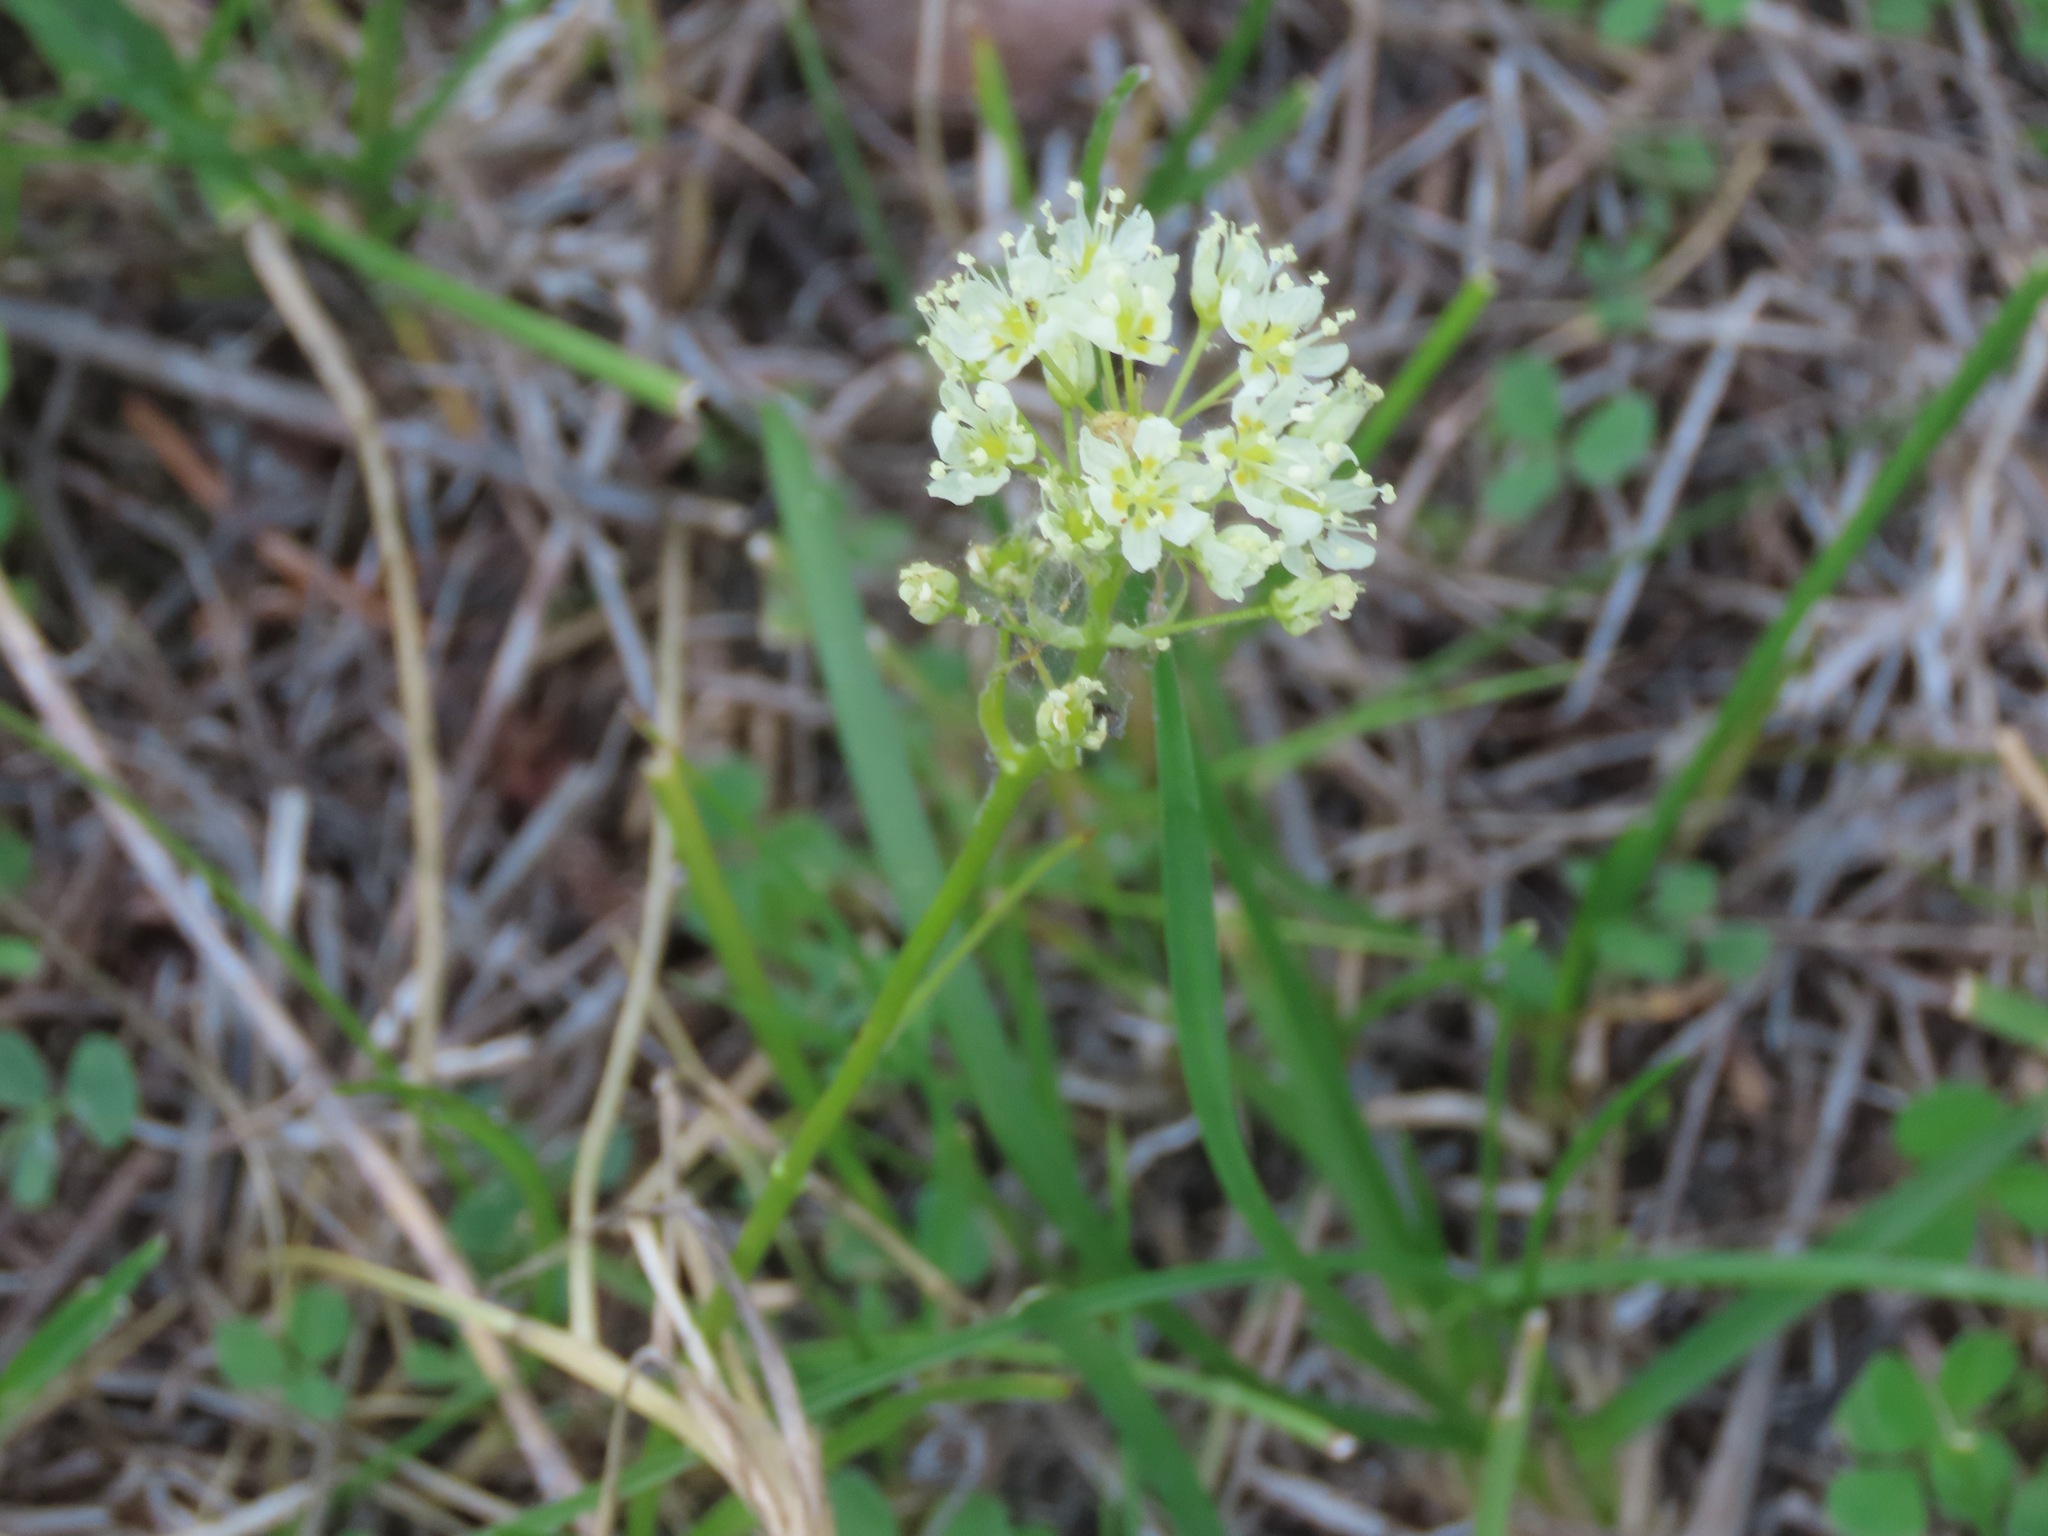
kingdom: Plantae
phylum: Tracheophyta
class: Liliopsida
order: Liliales
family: Melanthiaceae
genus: Toxicoscordion
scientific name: Toxicoscordion venenosum
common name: Meadow death camas
